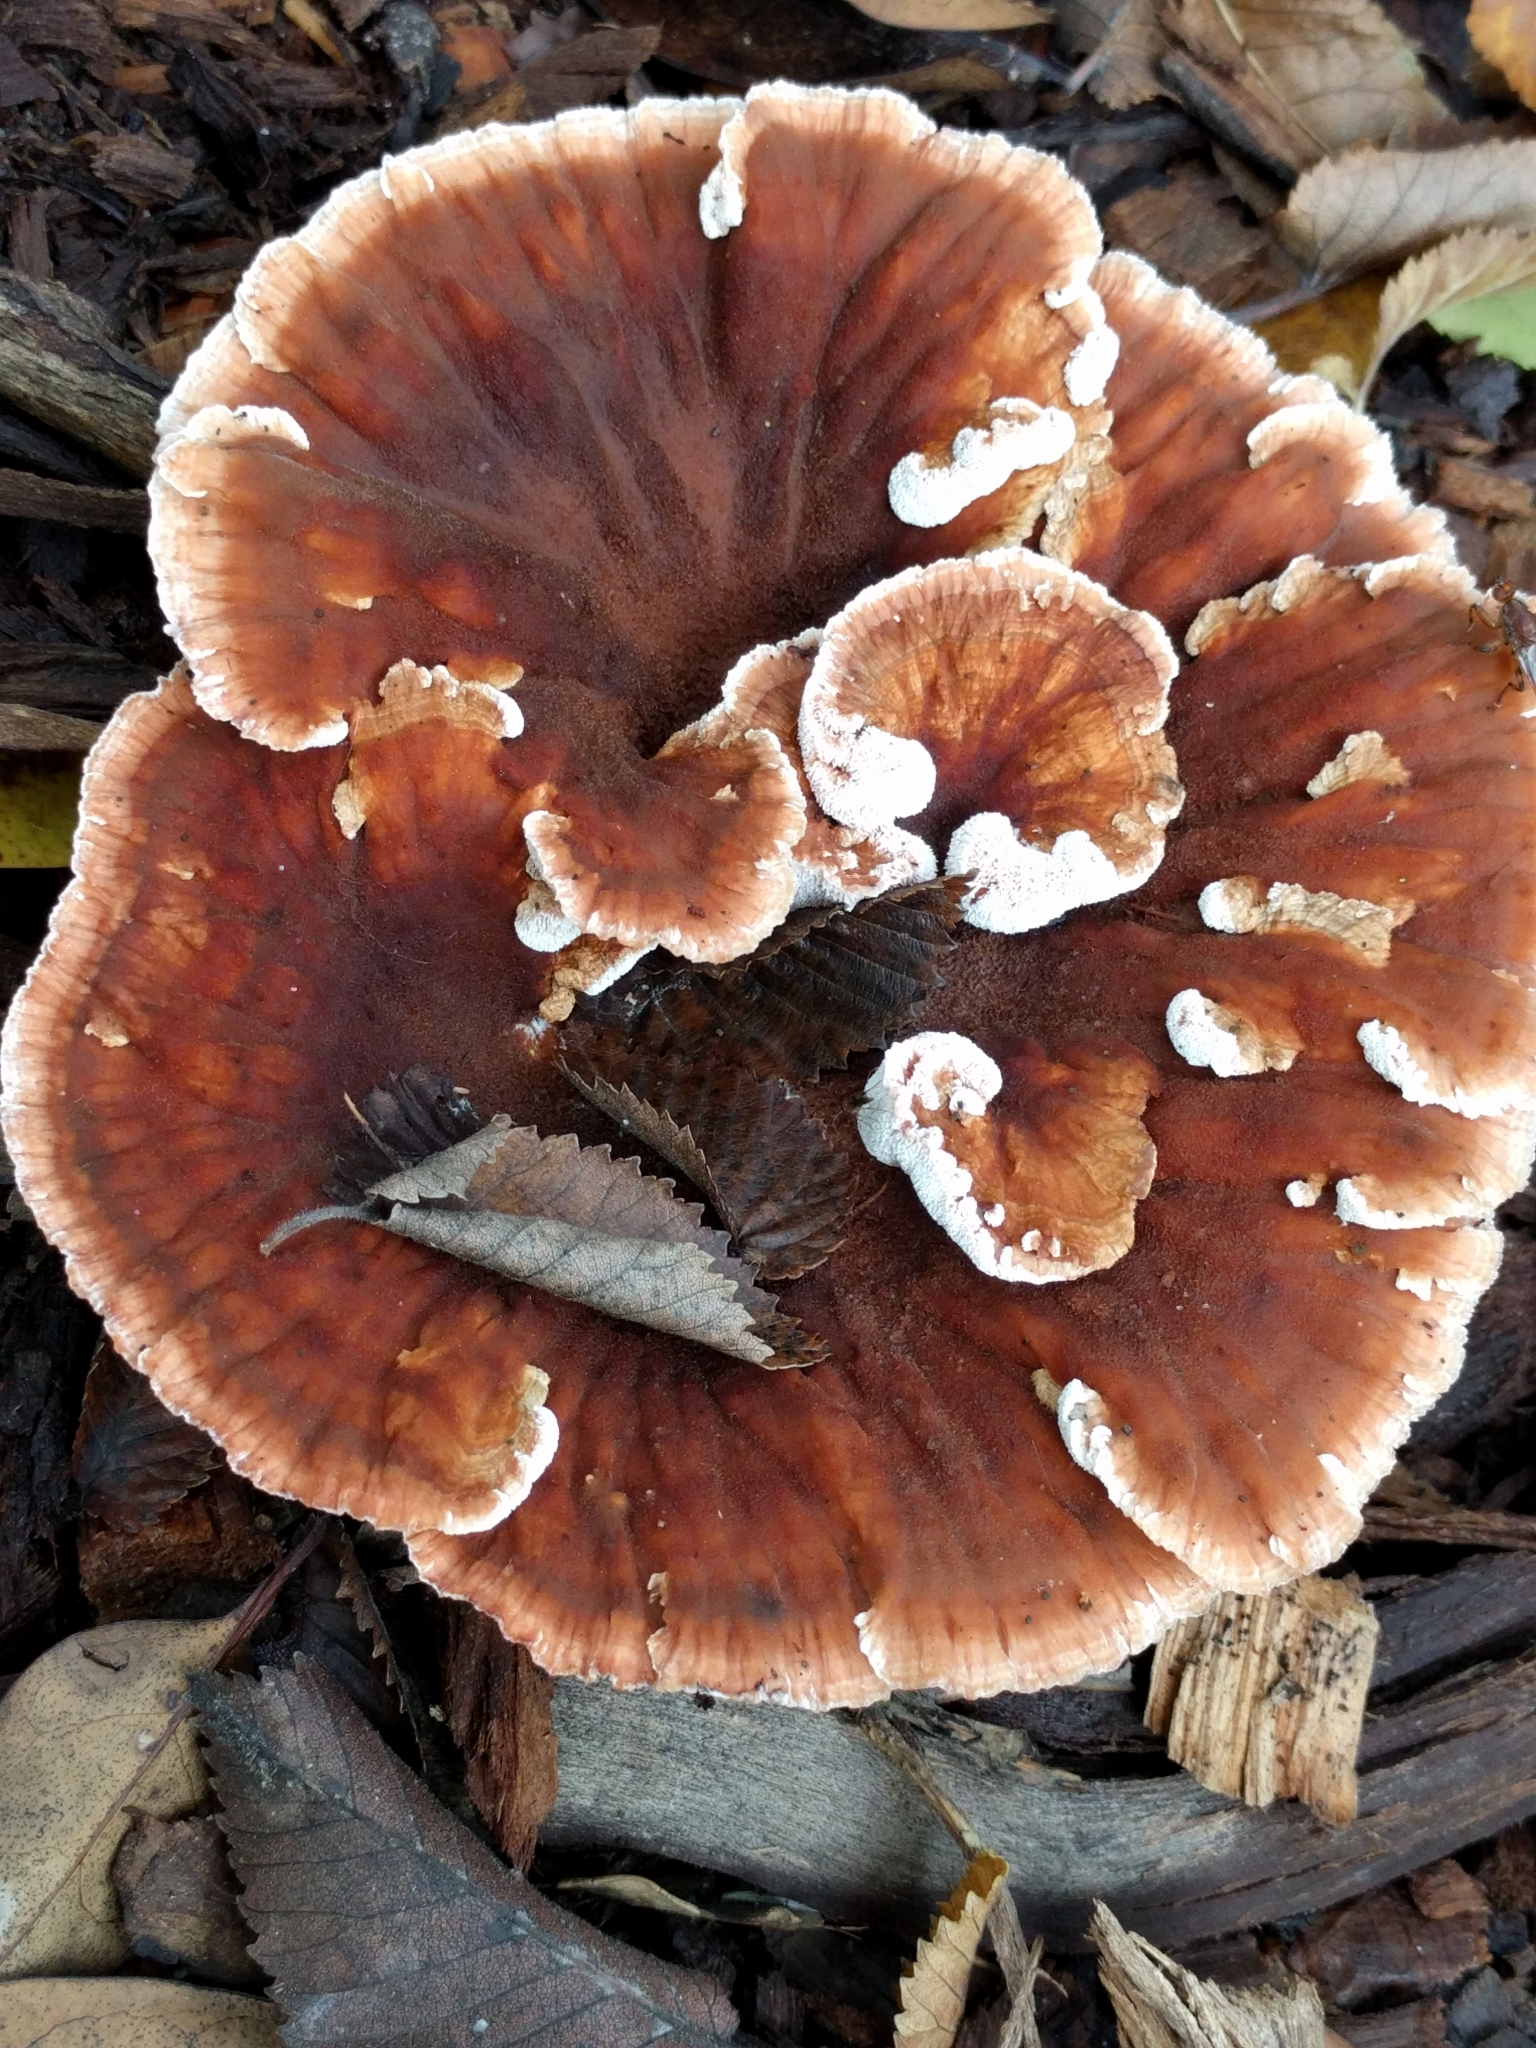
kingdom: Fungi
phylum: Basidiomycota
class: Agaricomycetes
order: Polyporales
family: Podoscyphaceae
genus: Abortiporus
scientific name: Abortiporus biennis
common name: Blushing rosette
